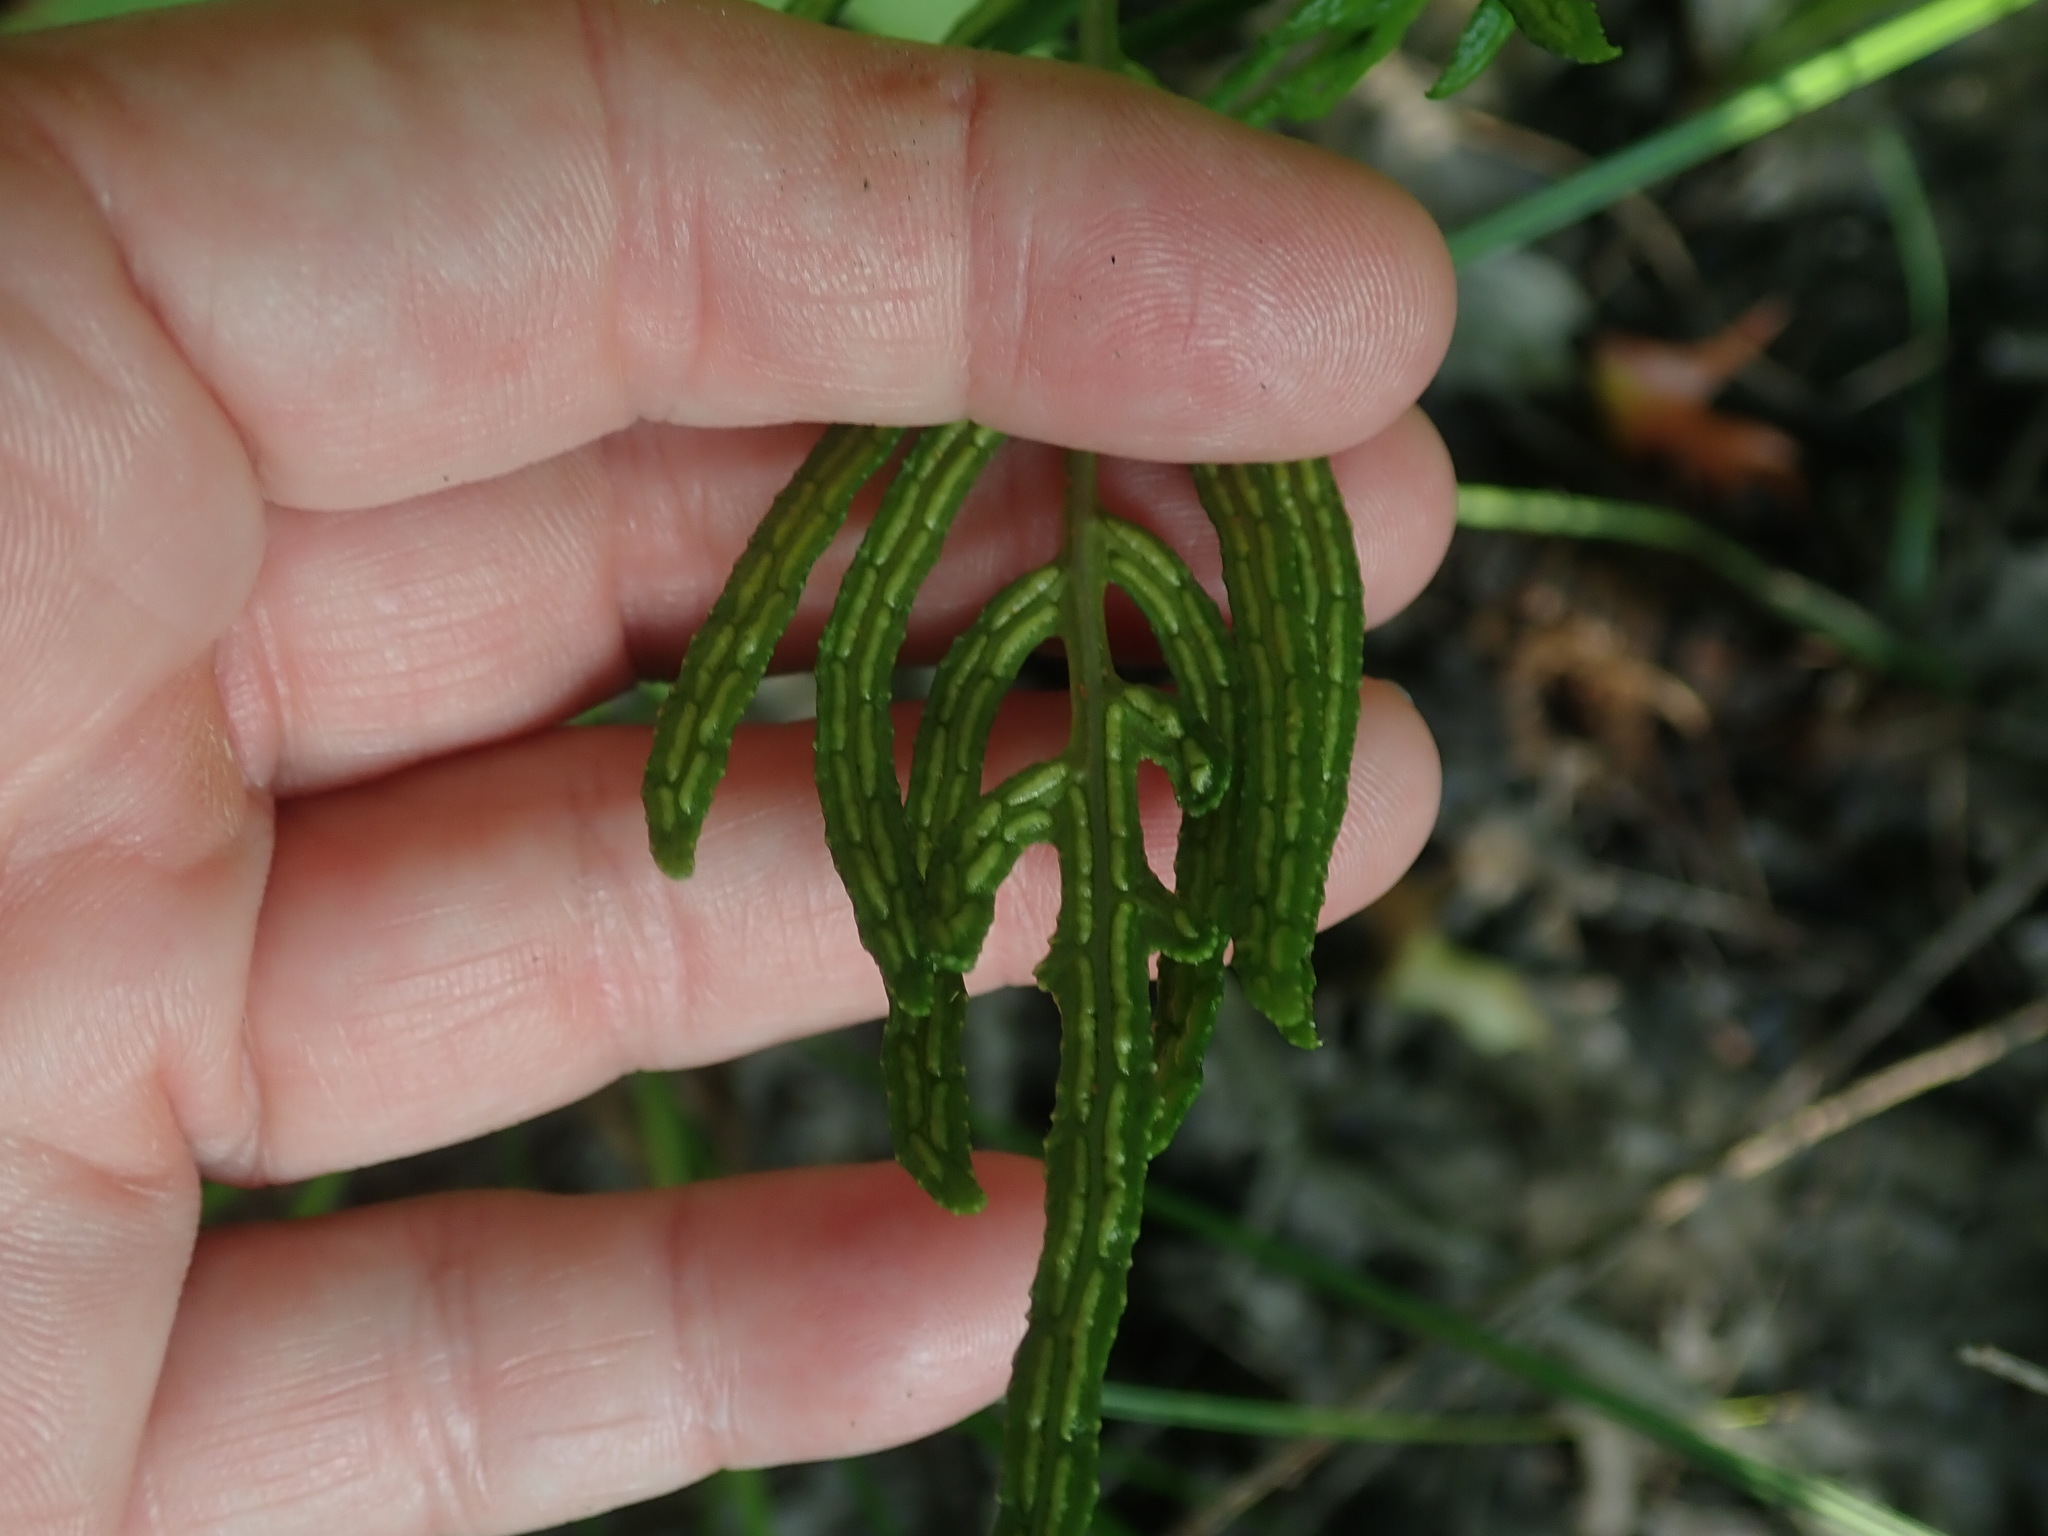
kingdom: Plantae
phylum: Tracheophyta
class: Polypodiopsida
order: Polypodiales
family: Blechnaceae
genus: Lorinseria
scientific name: Lorinseria areolata
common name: Dwarf chain fern
